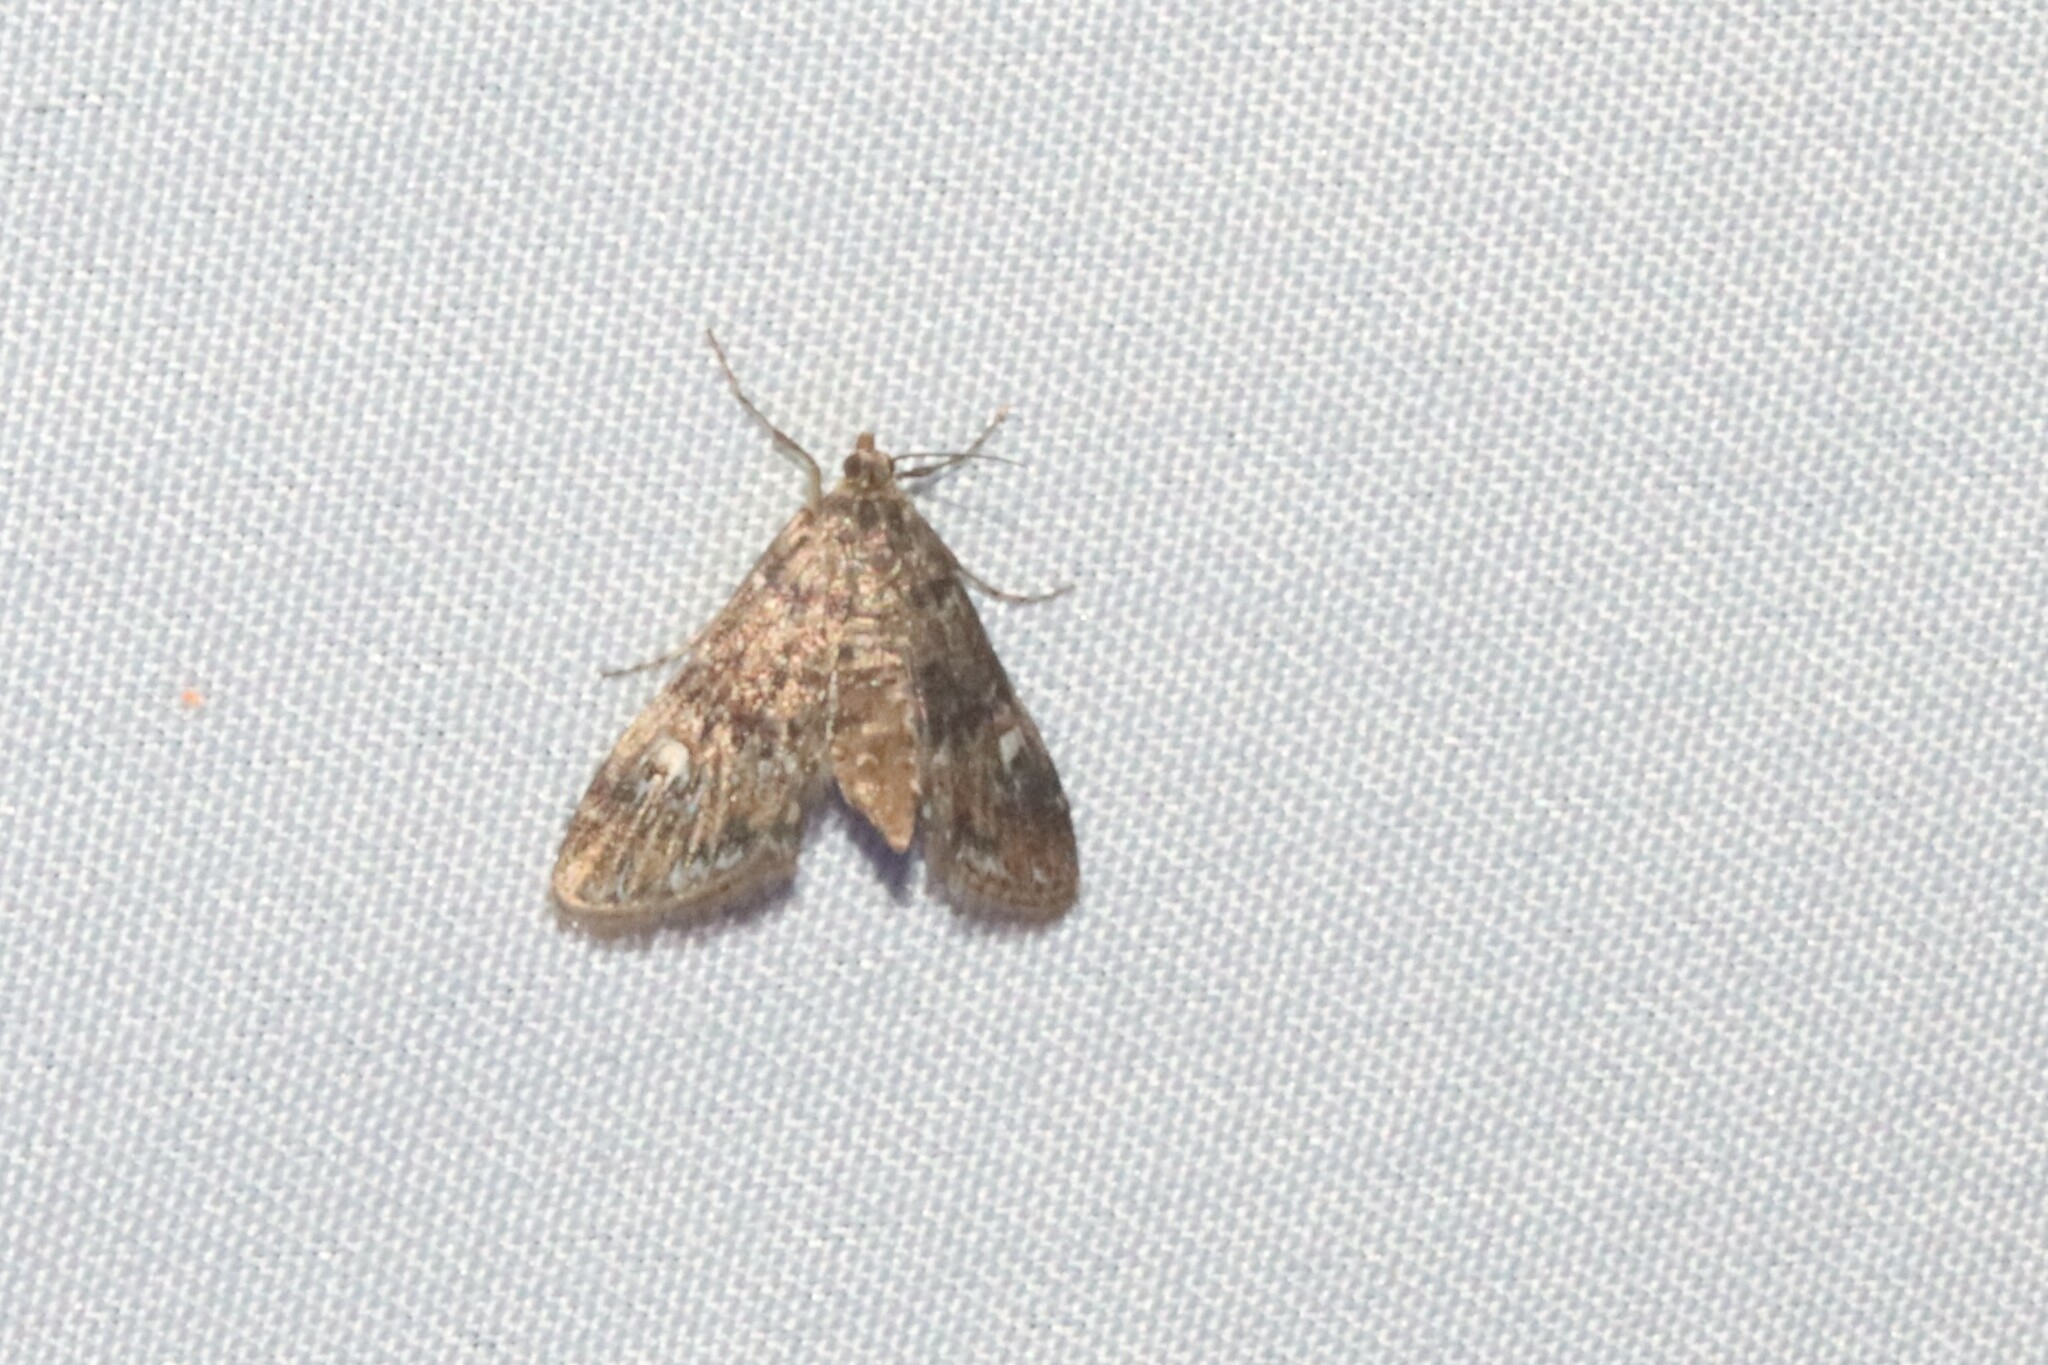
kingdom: Animalia
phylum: Arthropoda
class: Insecta
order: Lepidoptera
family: Crambidae
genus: Elophila
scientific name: Elophila obliteralis
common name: Waterlily leafcutter moth
